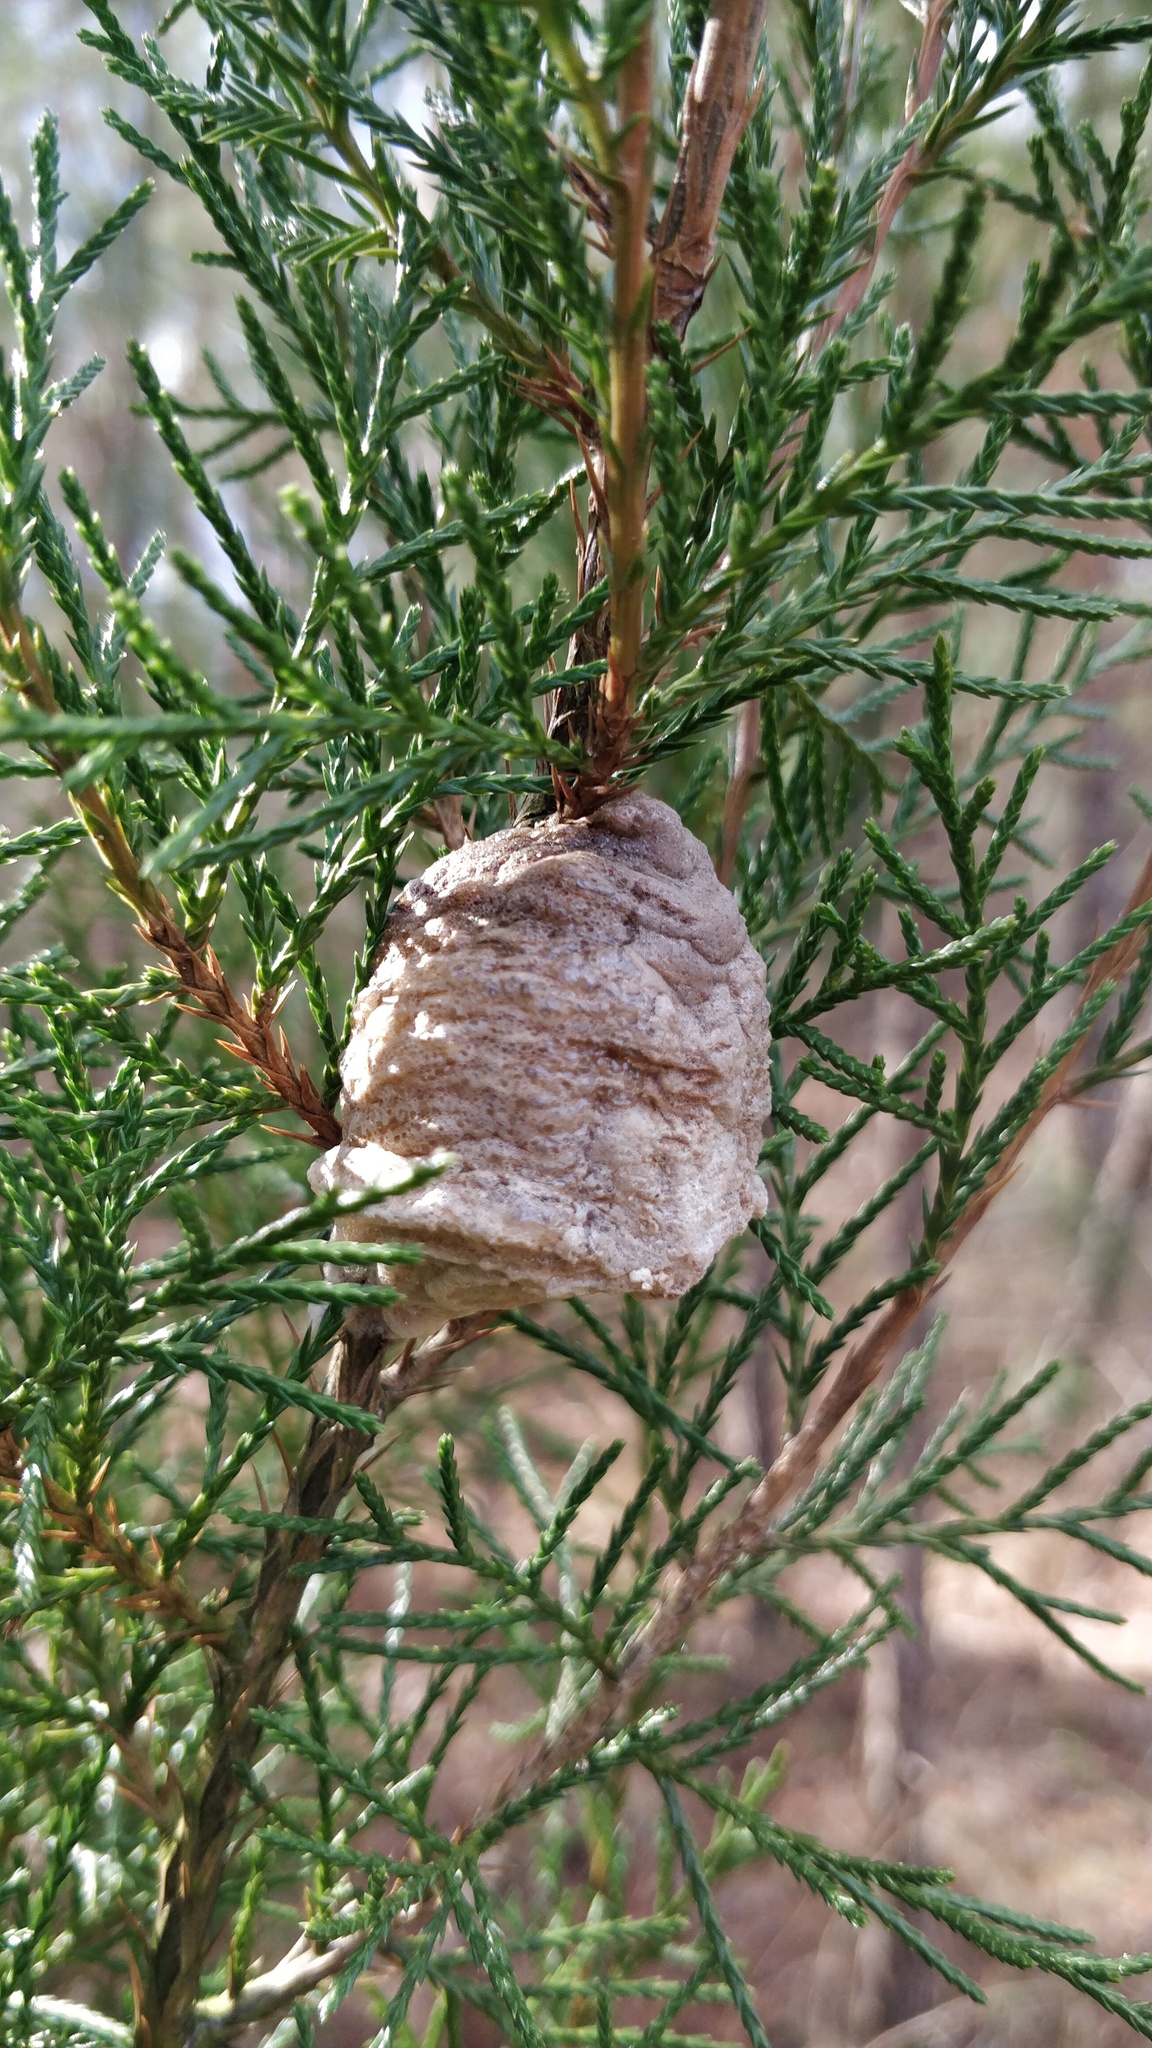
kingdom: Animalia
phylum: Arthropoda
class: Insecta
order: Mantodea
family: Mantidae
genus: Tenodera
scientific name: Tenodera sinensis
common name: Chinese mantis
